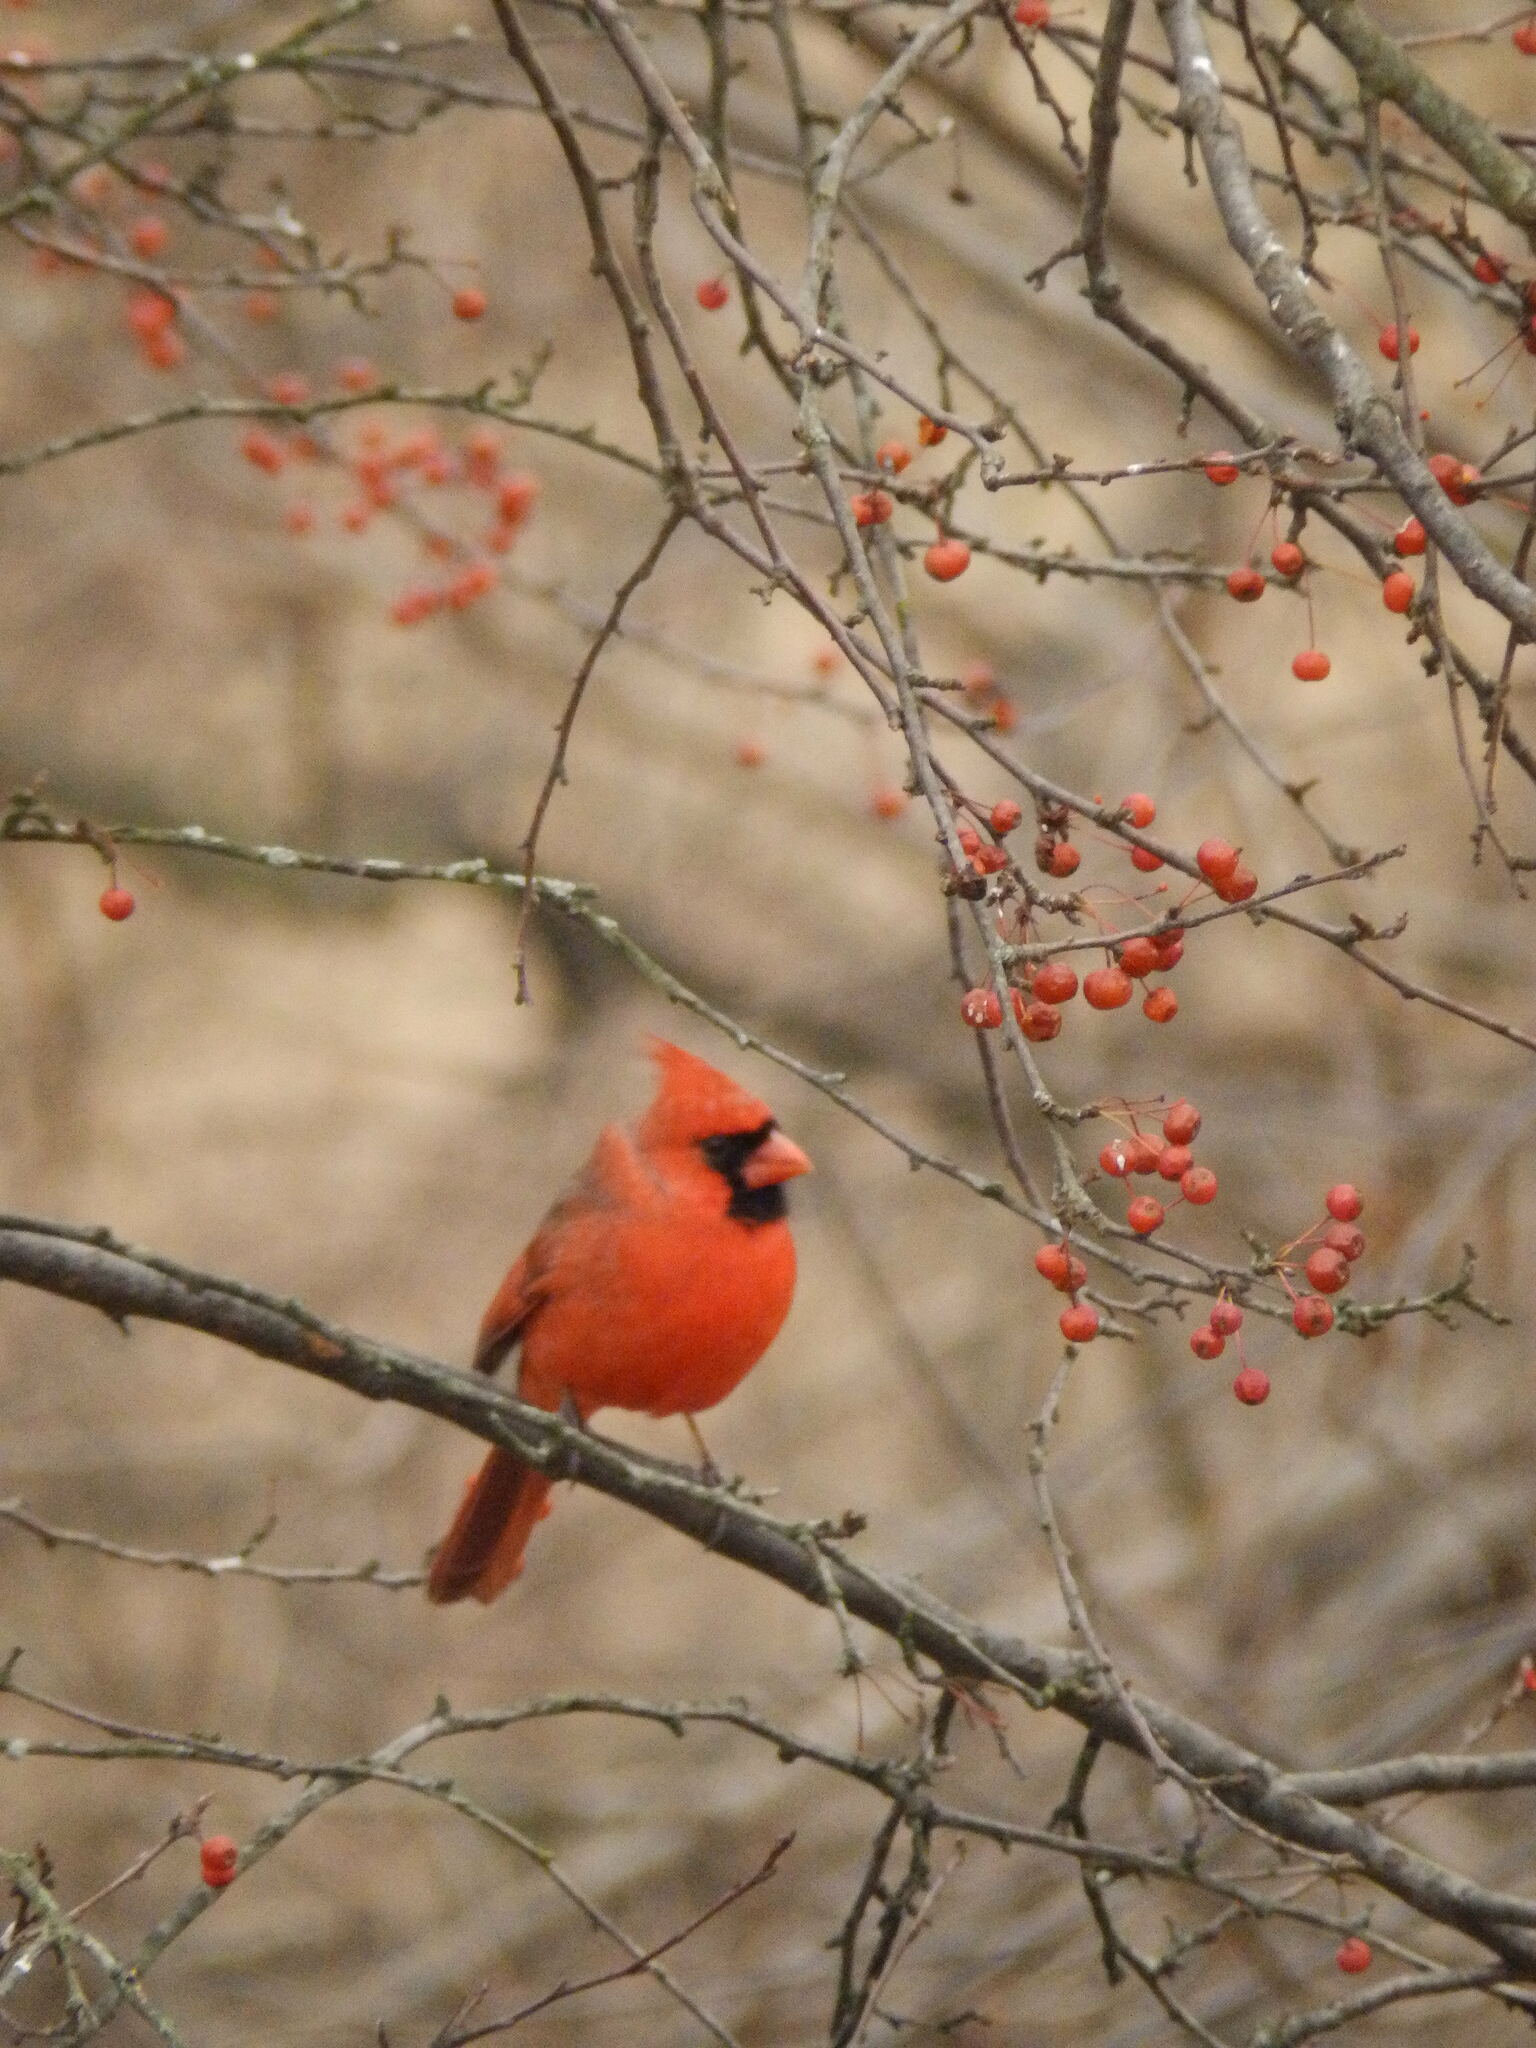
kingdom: Animalia
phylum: Chordata
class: Aves
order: Passeriformes
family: Cardinalidae
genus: Cardinalis
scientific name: Cardinalis cardinalis
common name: Northern cardinal
